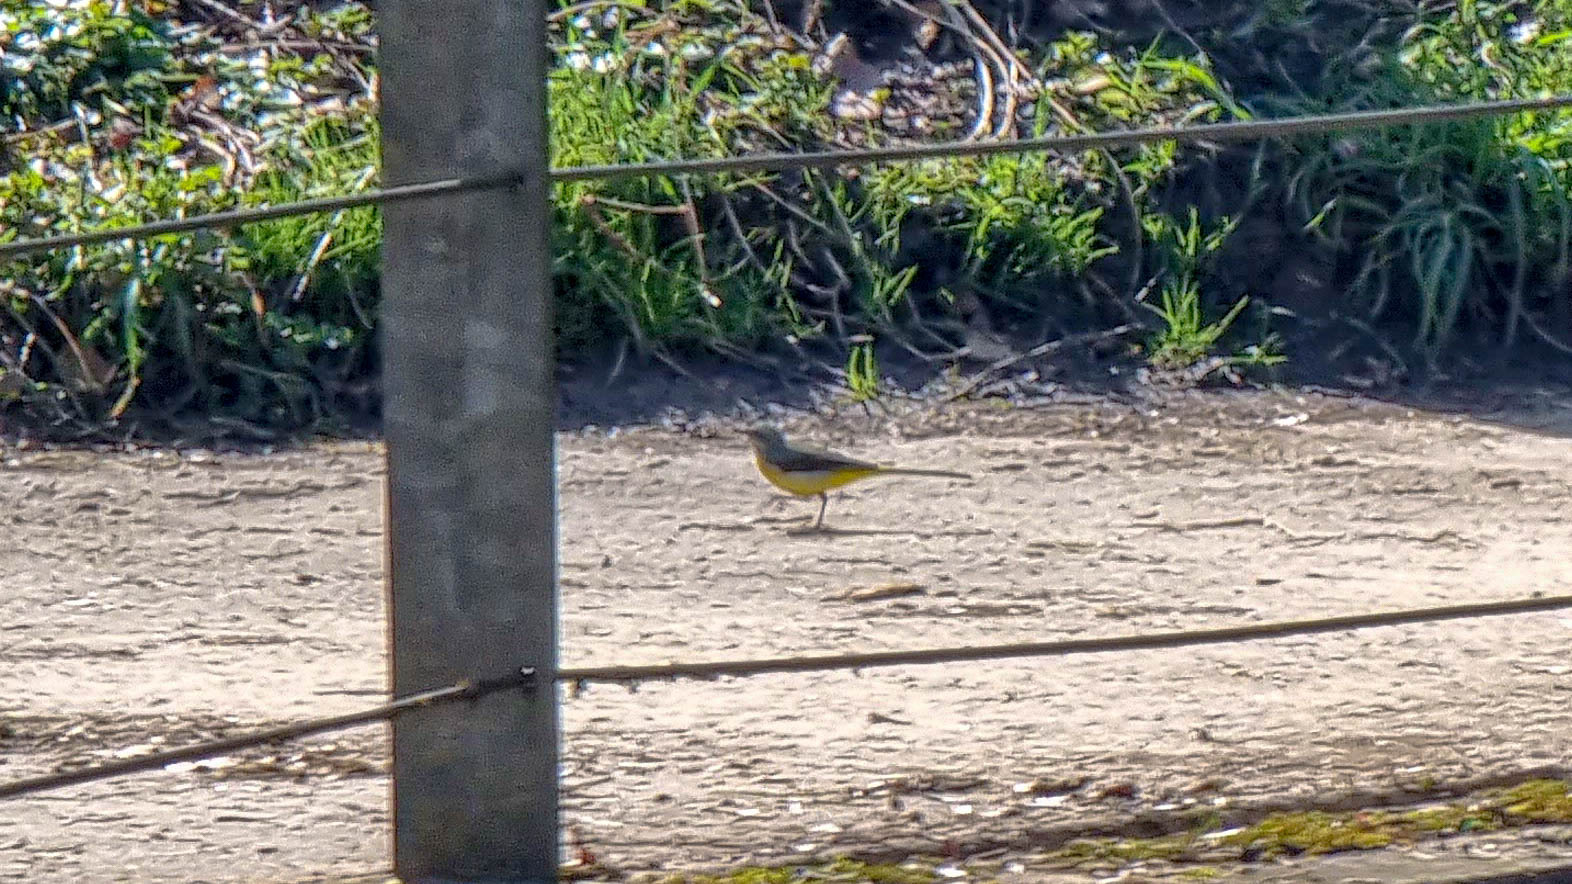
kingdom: Animalia
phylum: Chordata
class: Aves
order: Passeriformes
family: Motacillidae
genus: Motacilla
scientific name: Motacilla cinerea
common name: Grey wagtail
